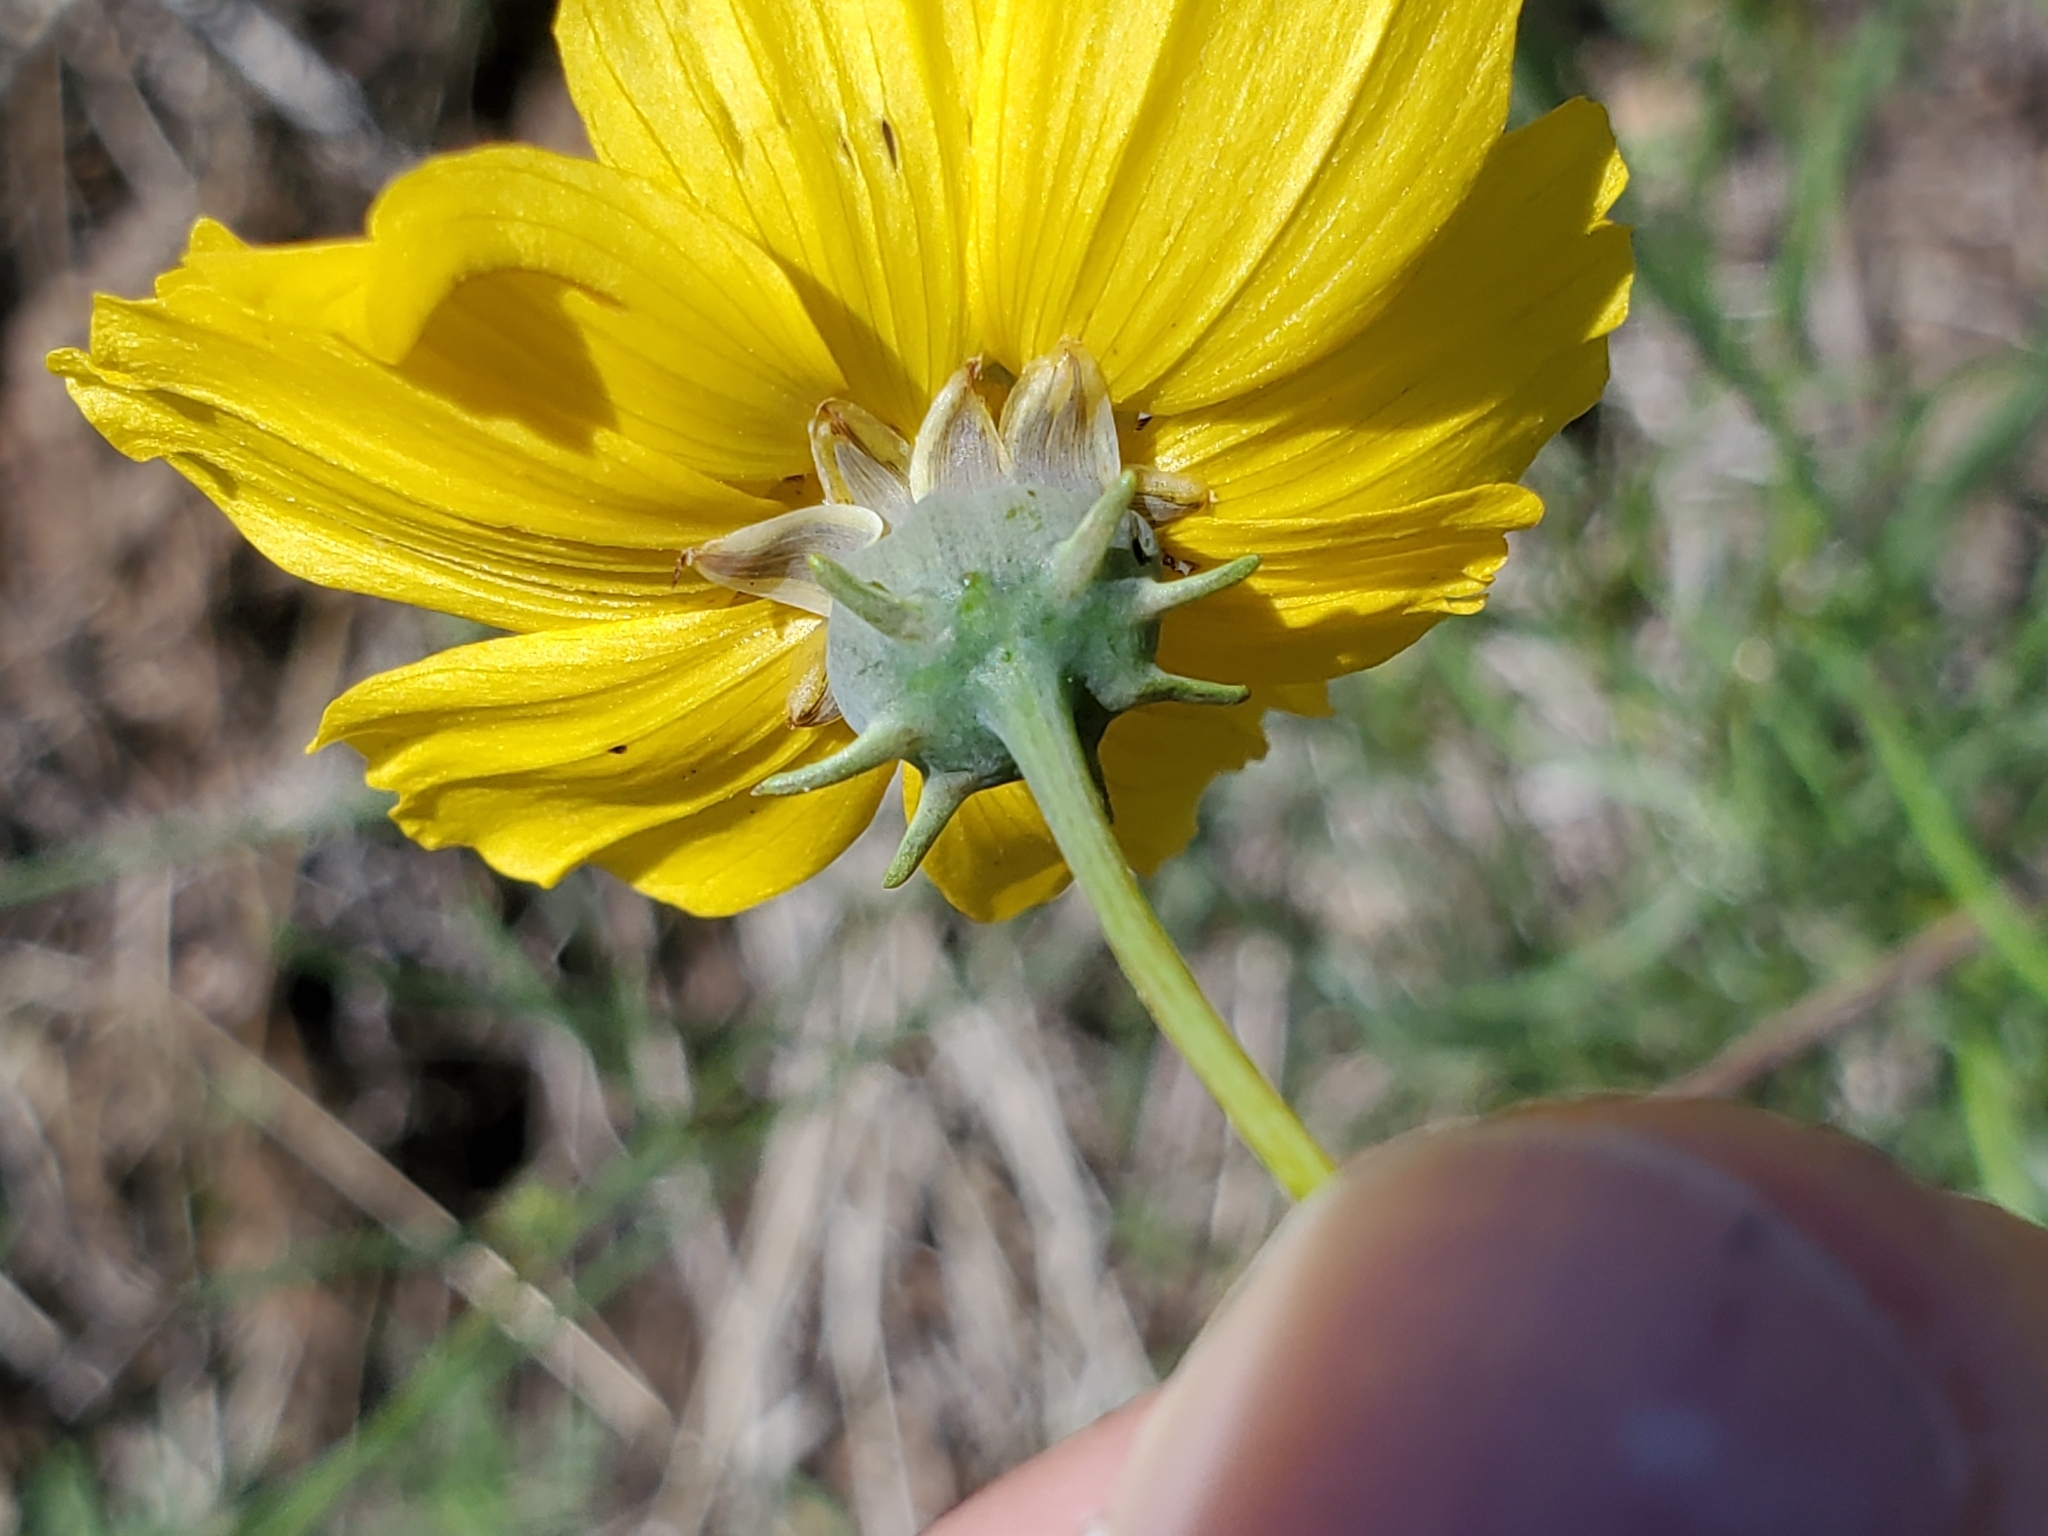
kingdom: Plantae
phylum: Tracheophyta
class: Magnoliopsida
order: Asterales
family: Asteraceae
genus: Thelesperma
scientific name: Thelesperma filifolium
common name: Stiff greenthread
